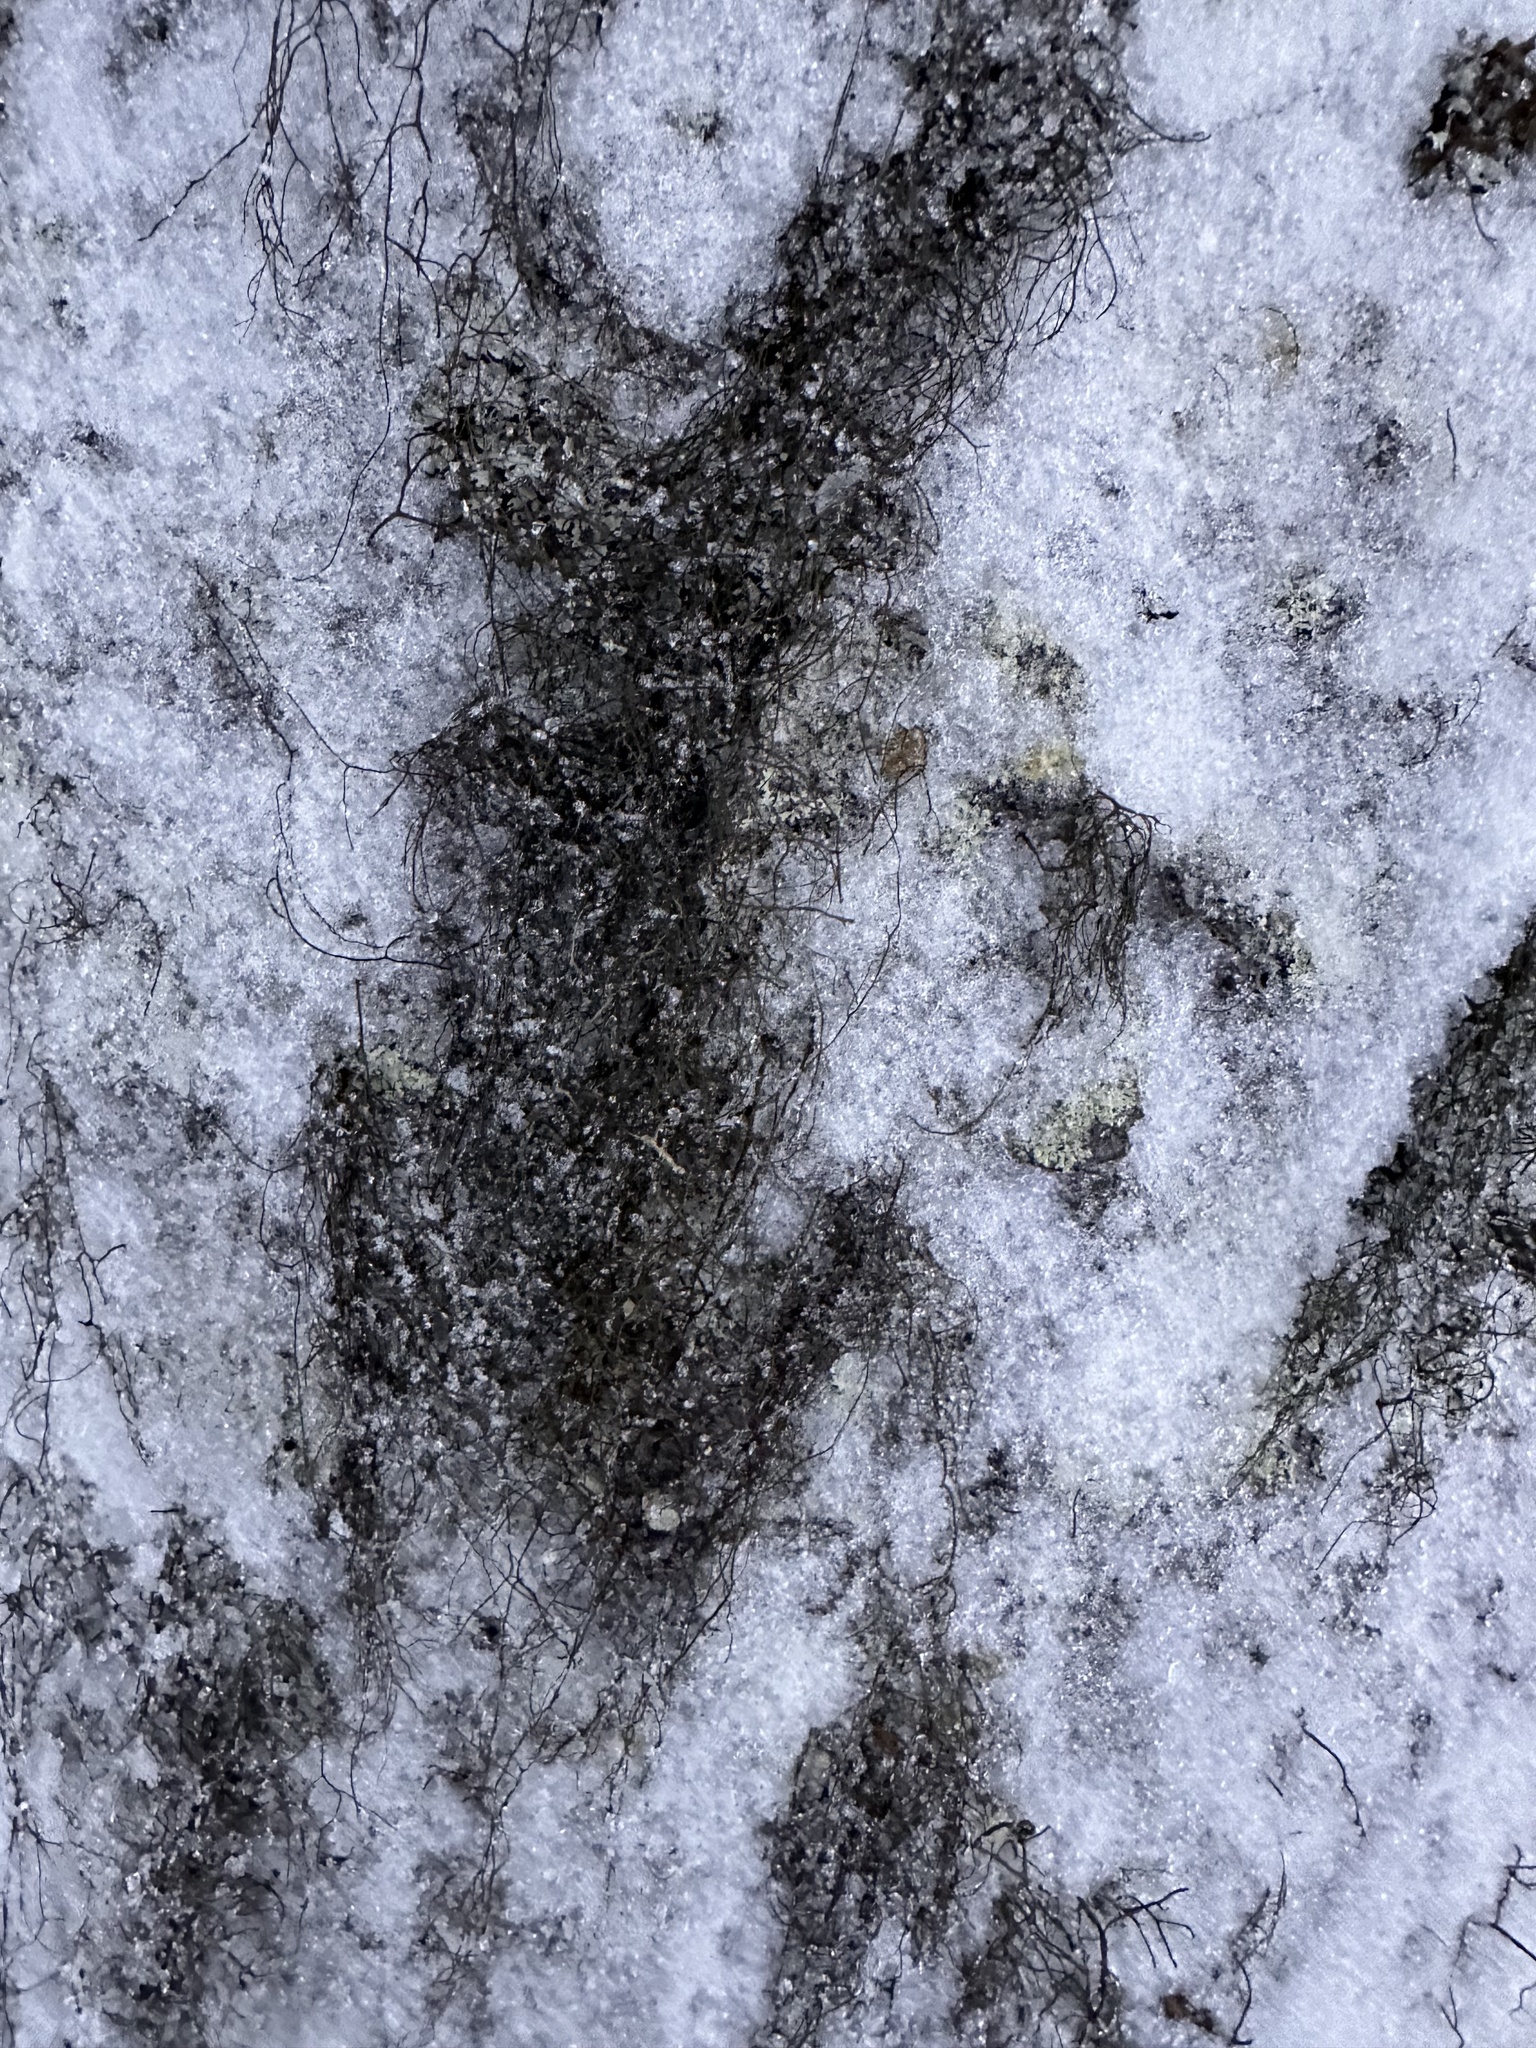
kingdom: Fungi
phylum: Ascomycota
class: Lecanoromycetes
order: Lecanorales
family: Parmeliaceae
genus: Bryoria
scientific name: Bryoria fuscescens
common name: Pale-footed horsehair lichen
